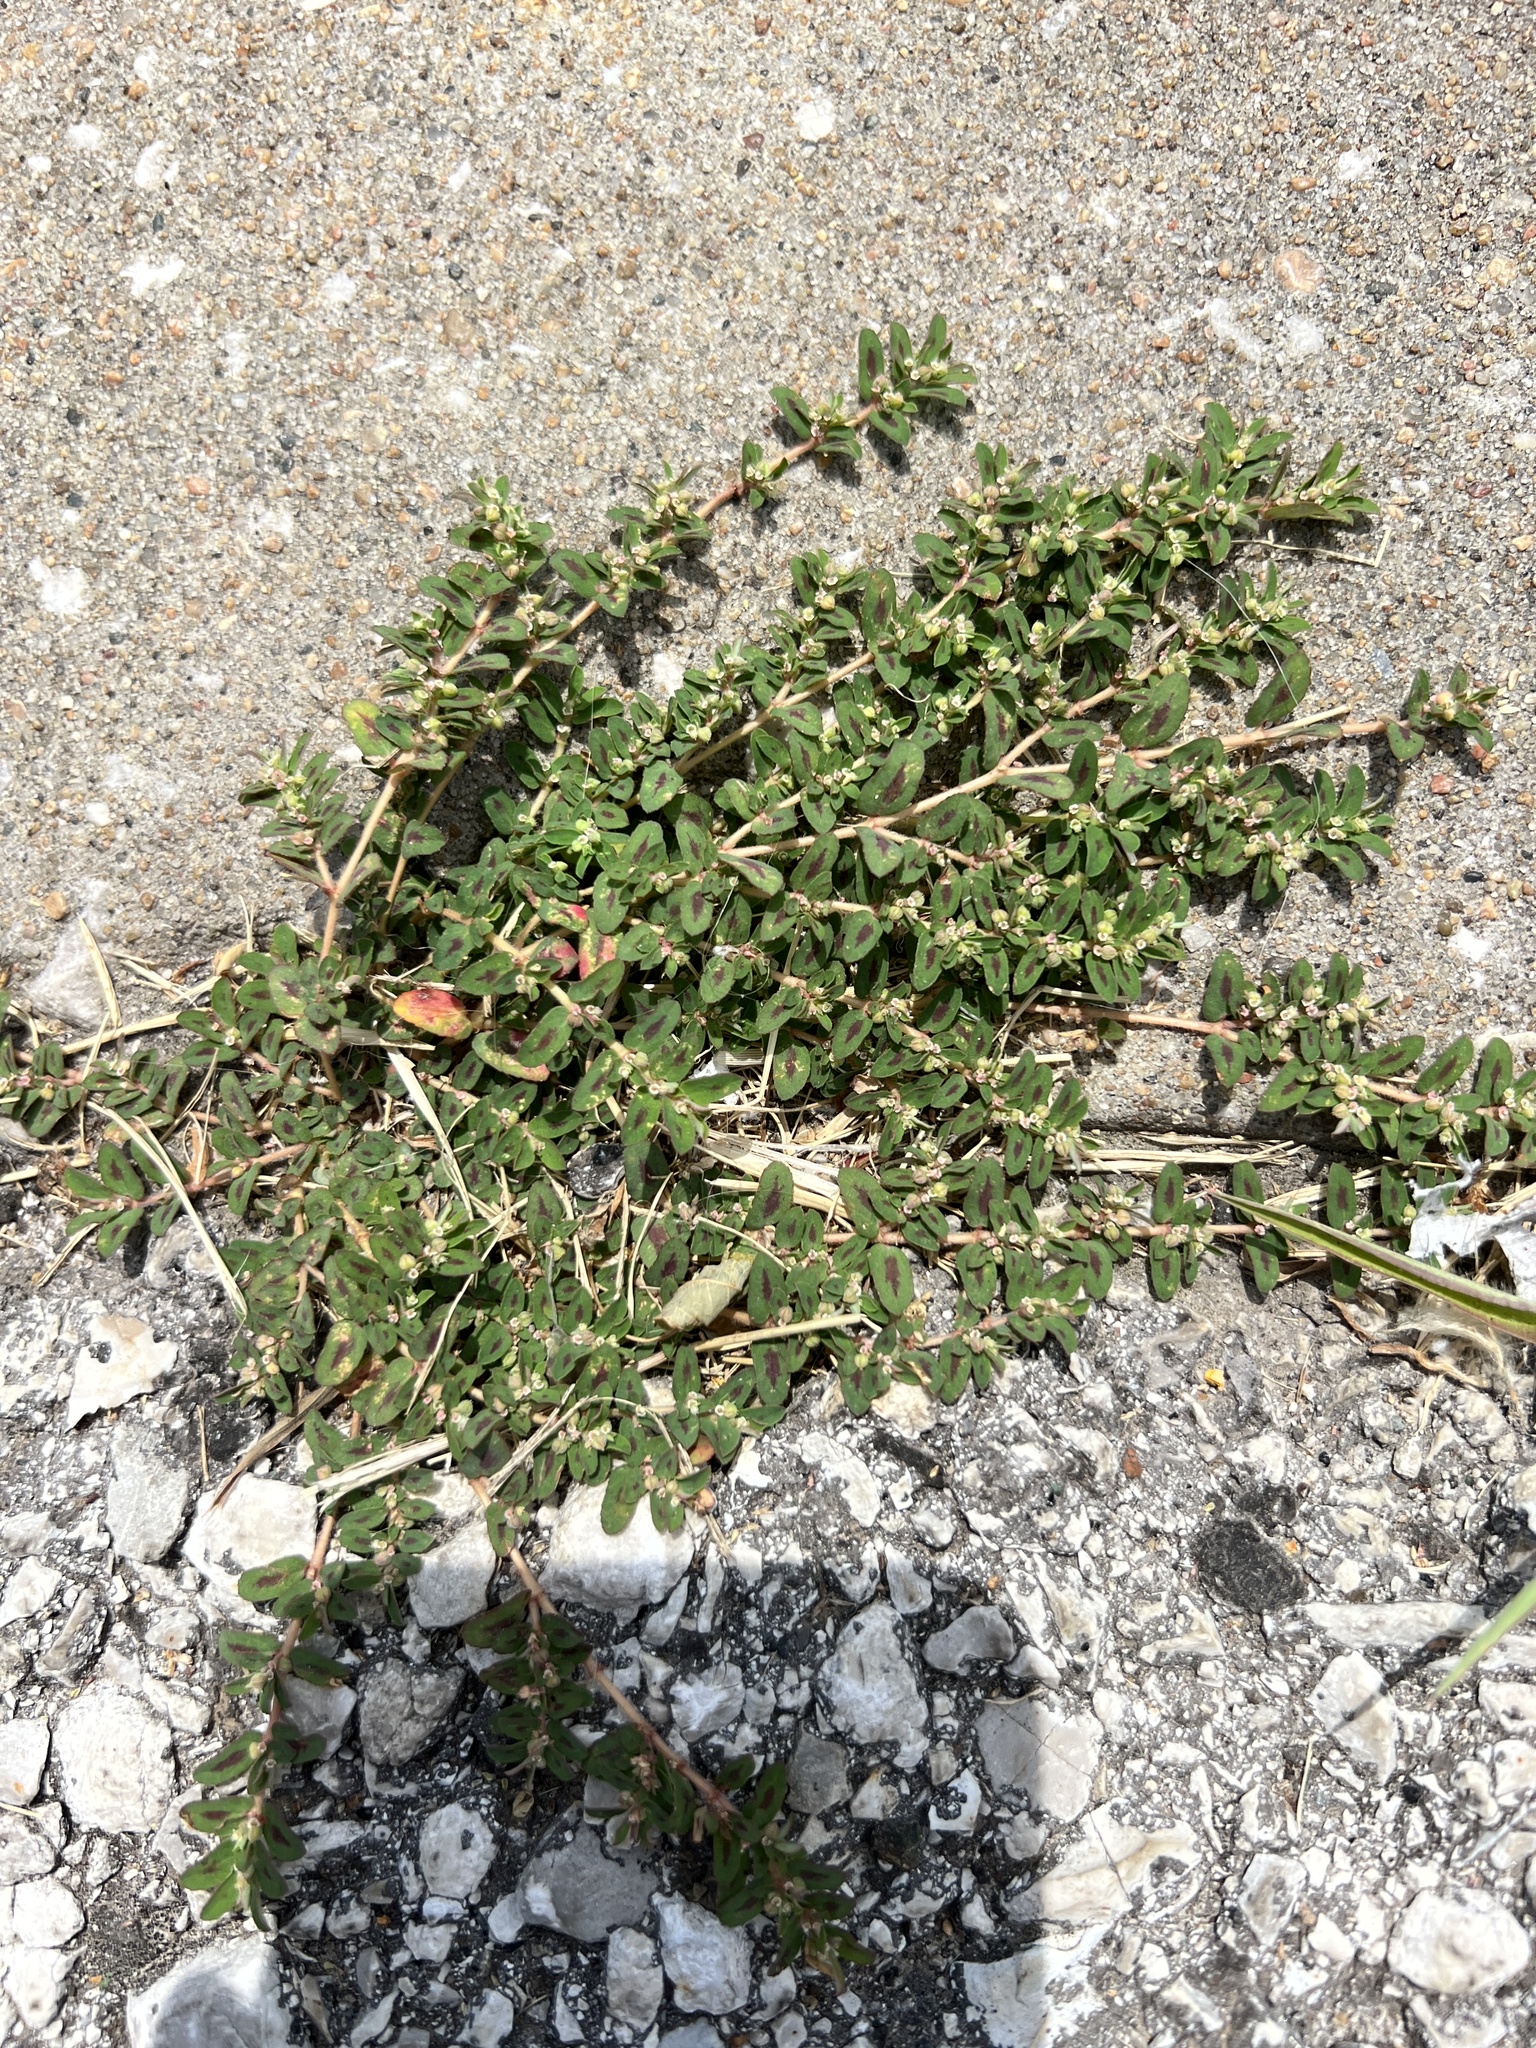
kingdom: Plantae
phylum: Tracheophyta
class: Magnoliopsida
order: Malpighiales
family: Euphorbiaceae
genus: Euphorbia
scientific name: Euphorbia maculata
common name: Spotted spurge
